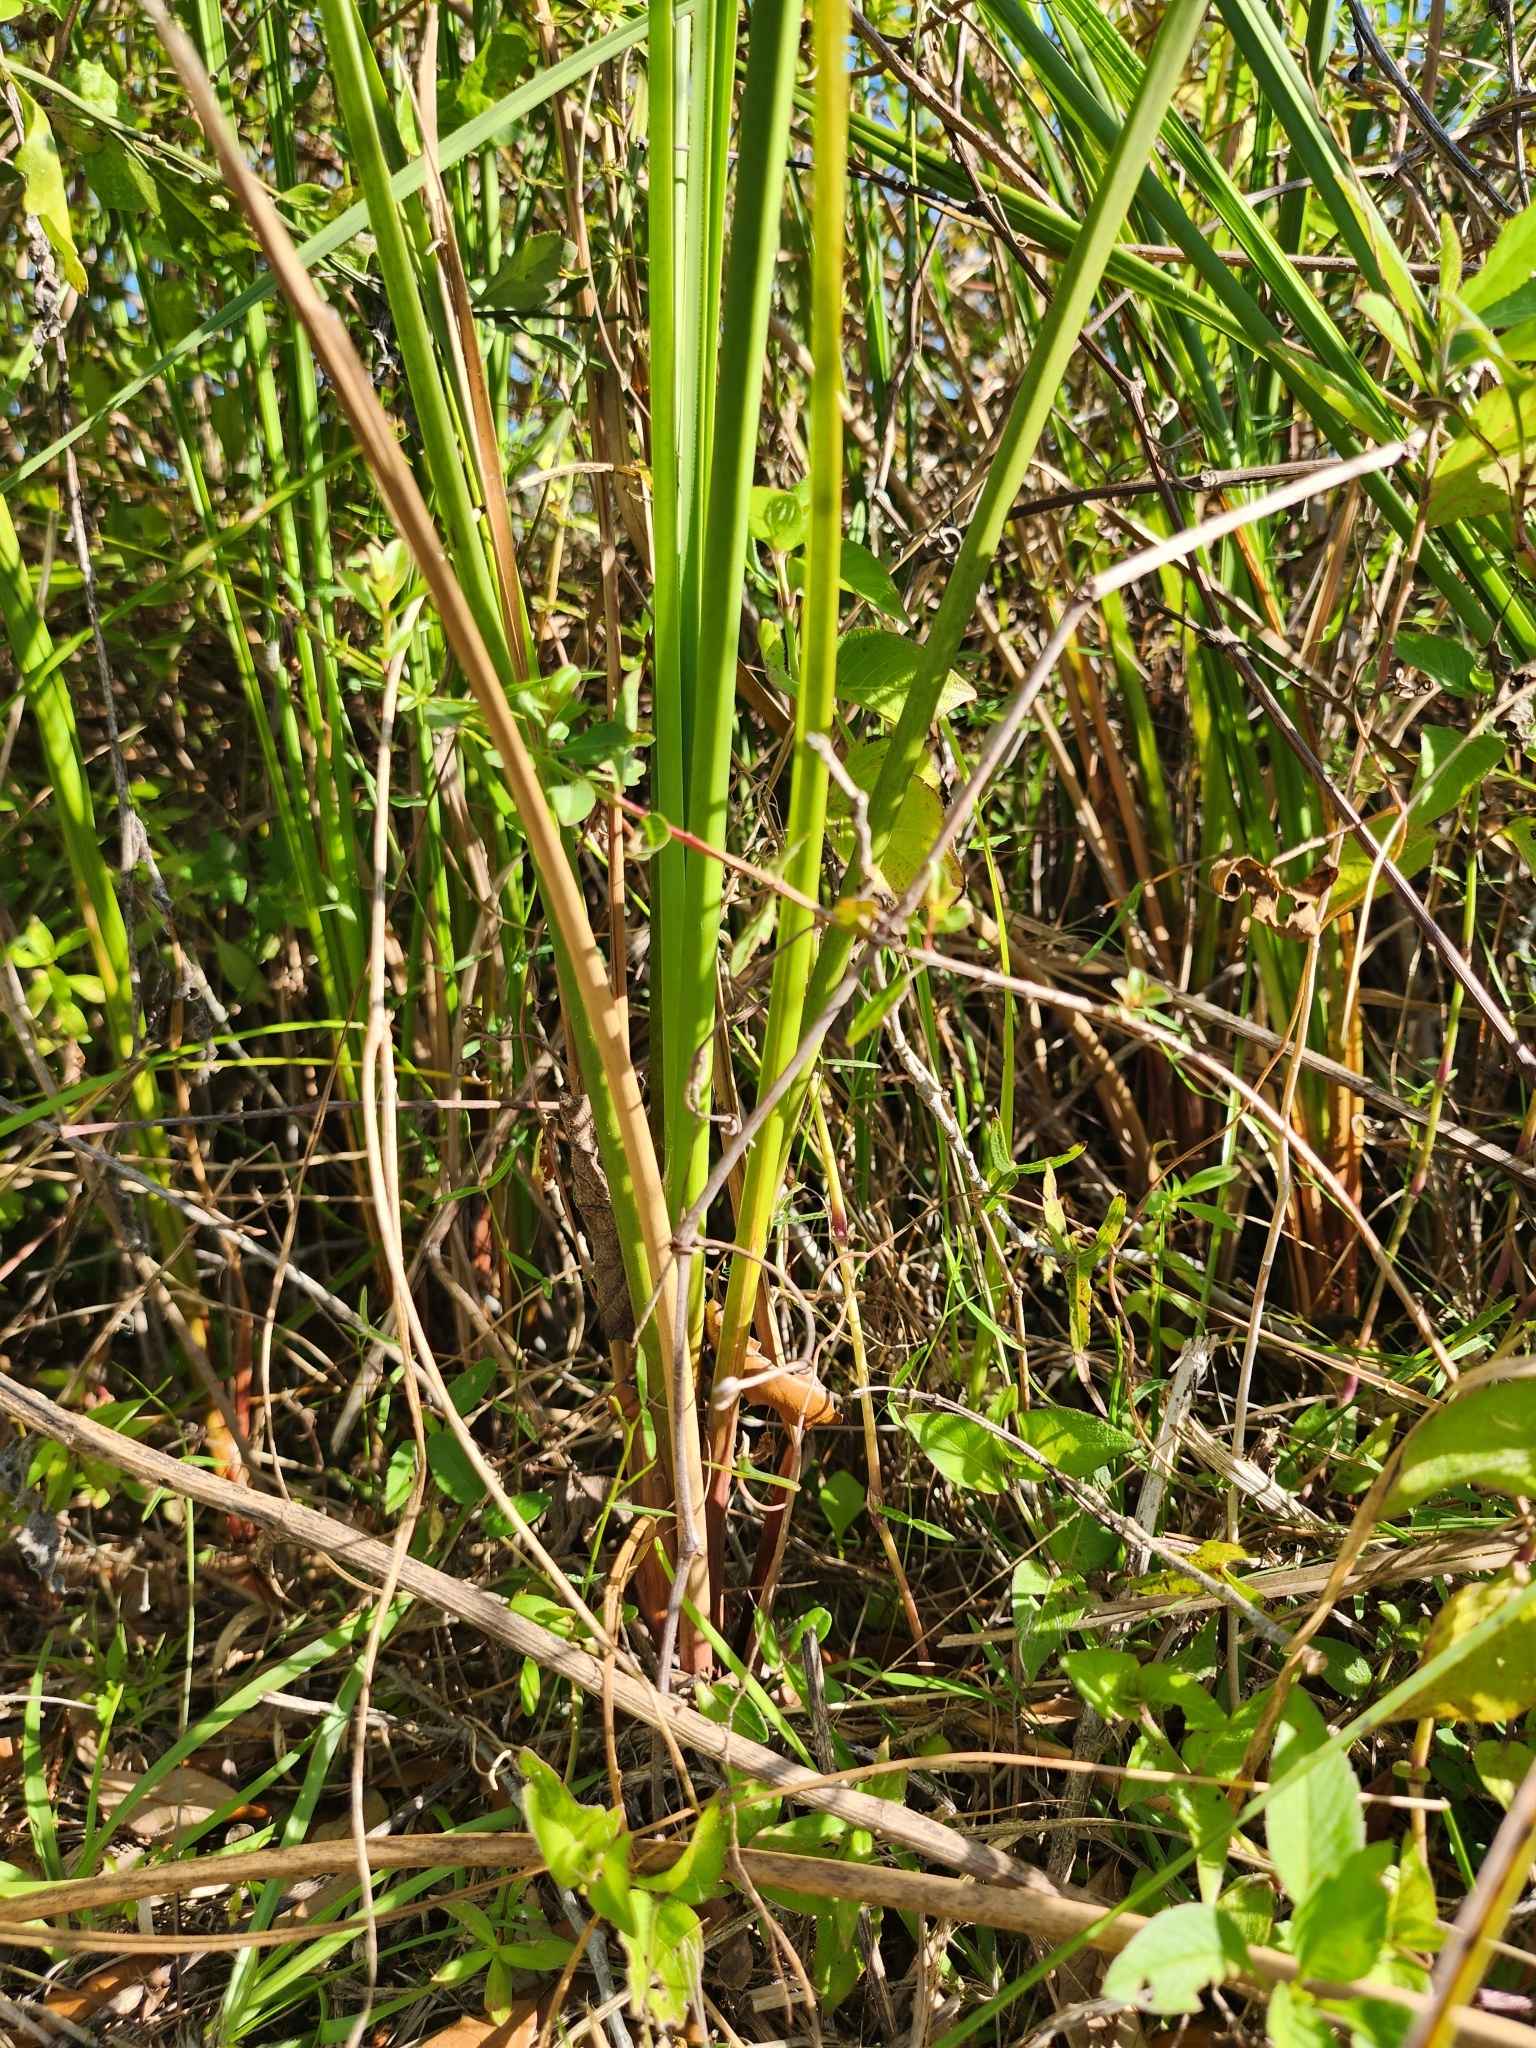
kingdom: Plantae
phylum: Tracheophyta
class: Liliopsida
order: Poales
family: Cyperaceae
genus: Cladium
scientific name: Cladium mariscus
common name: Great fen-sedge
